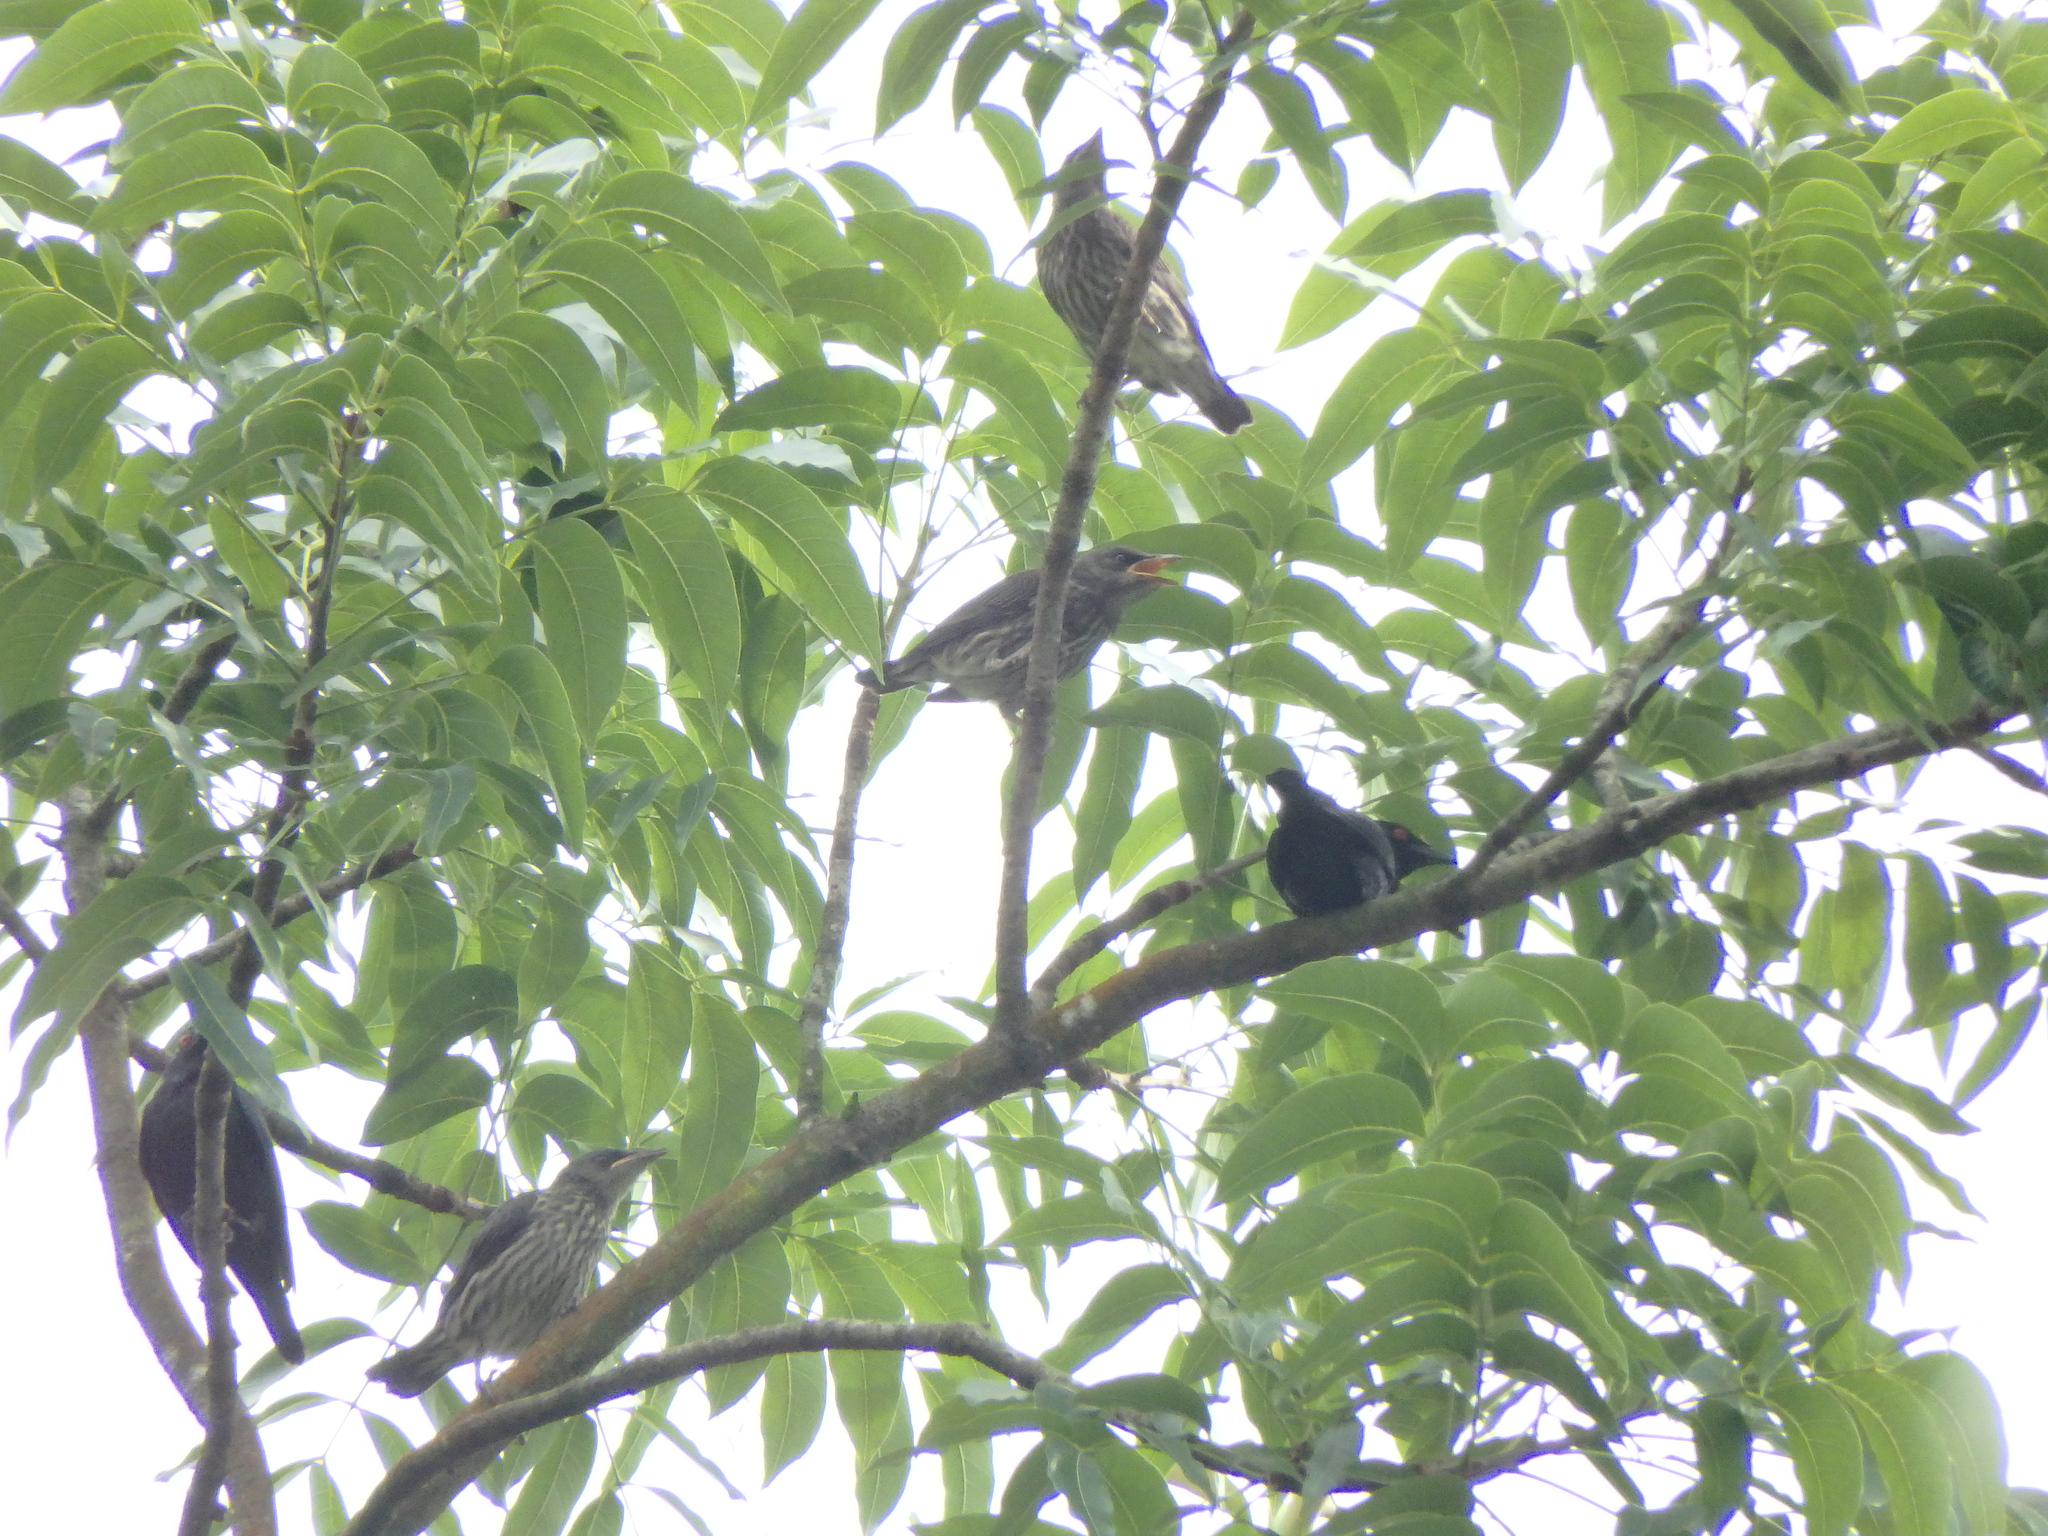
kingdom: Animalia
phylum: Chordata
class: Aves
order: Passeriformes
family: Sturnidae
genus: Aplonis
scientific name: Aplonis panayensis
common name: Asian glossy starling
